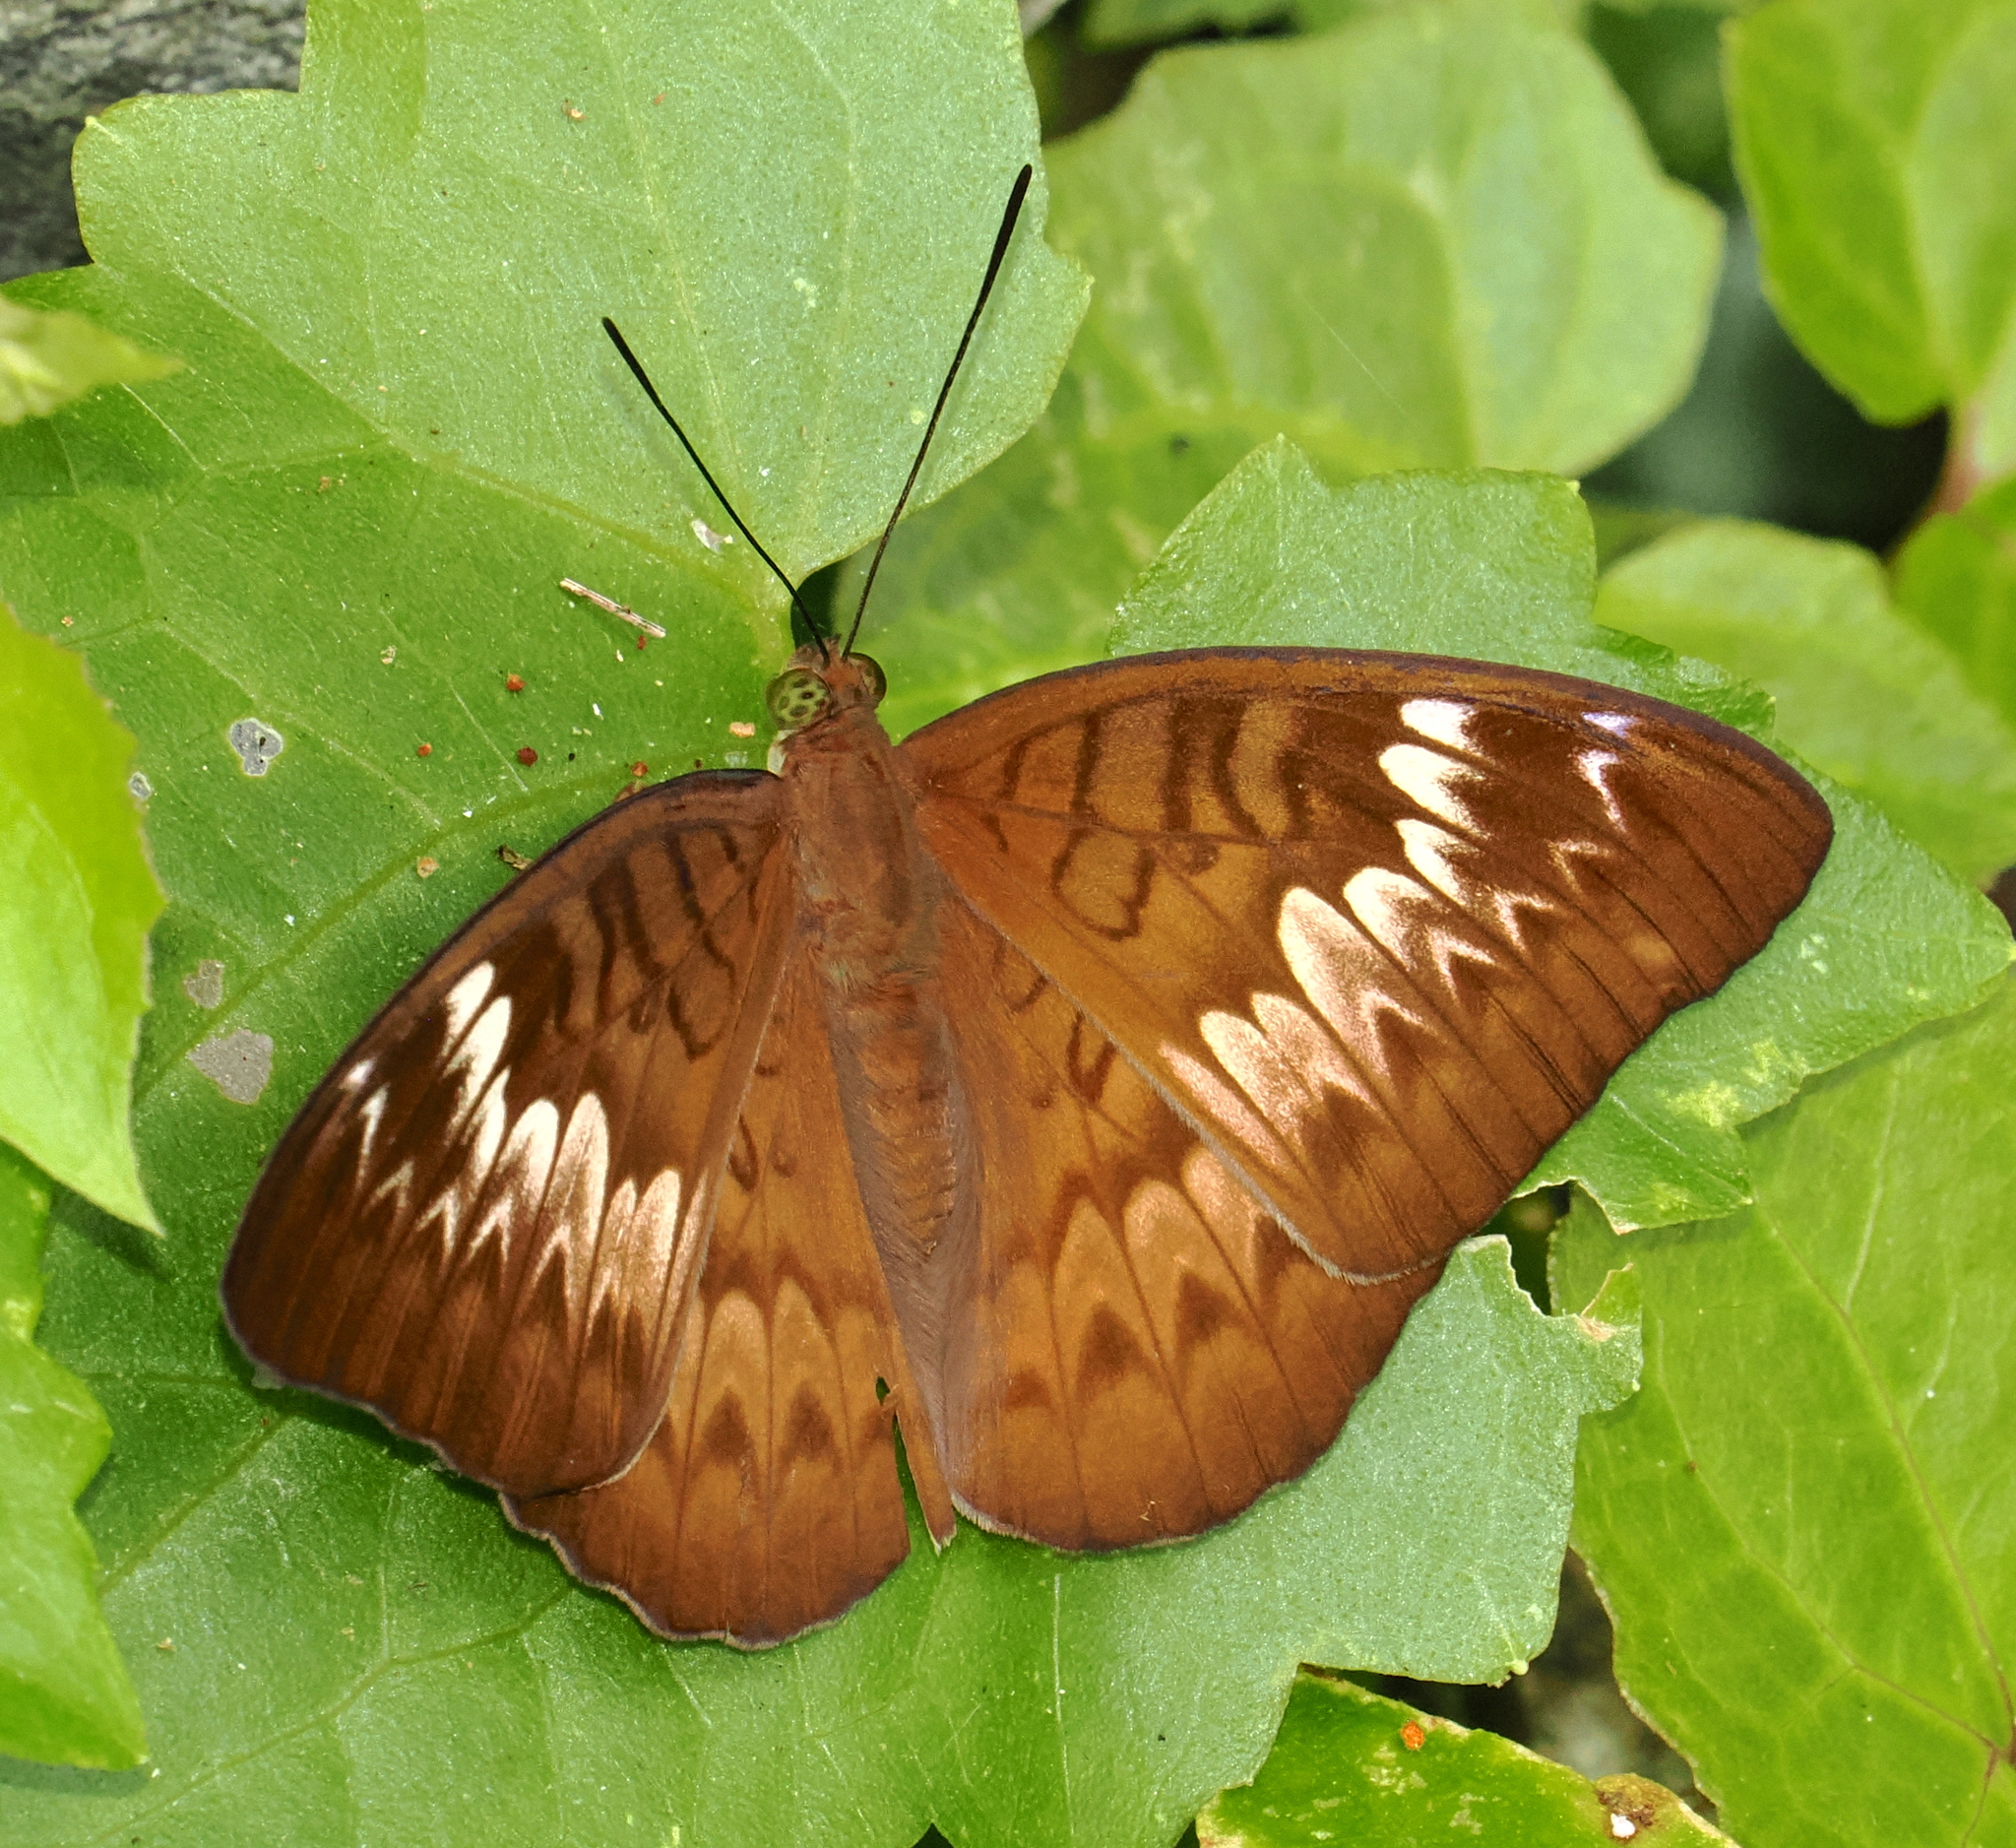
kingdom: Animalia
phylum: Arthropoda
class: Insecta
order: Lepidoptera
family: Nymphalidae
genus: Tanaecia
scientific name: Tanaecia palguna
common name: Long-lined viscount
